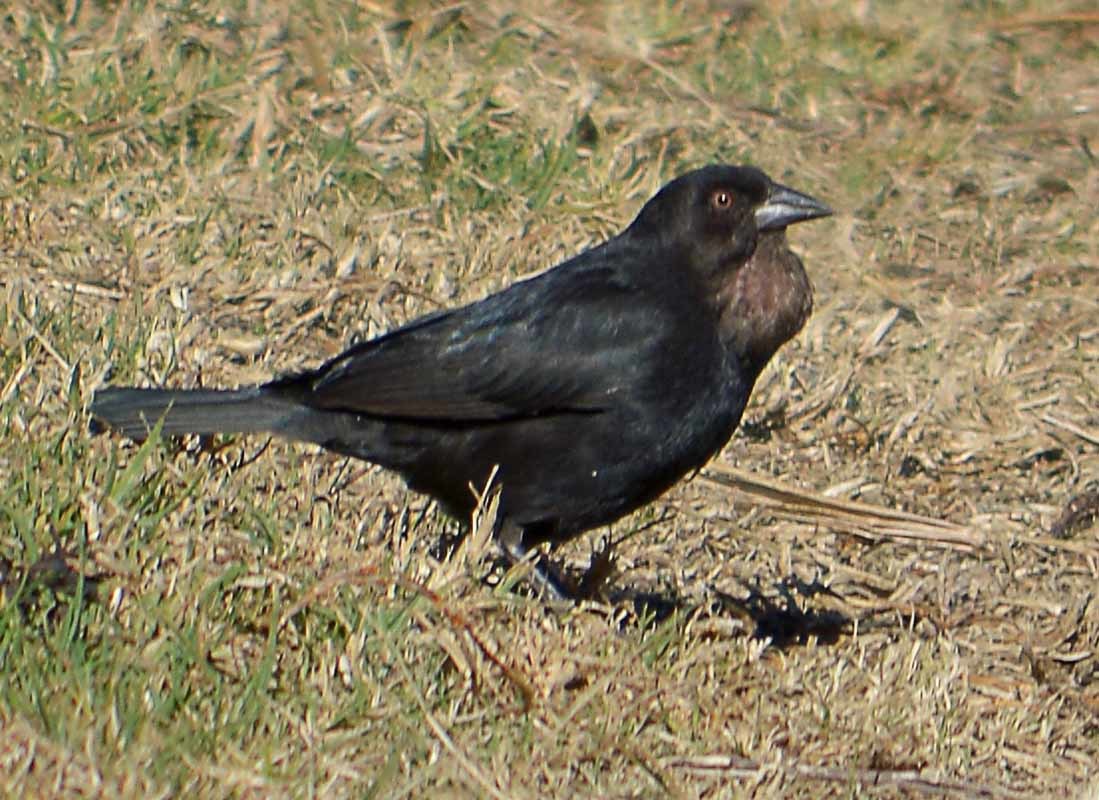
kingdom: Animalia
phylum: Chordata
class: Aves
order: Passeriformes
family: Icteridae
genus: Molothrus
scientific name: Molothrus aeneus
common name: Bronzed cowbird
